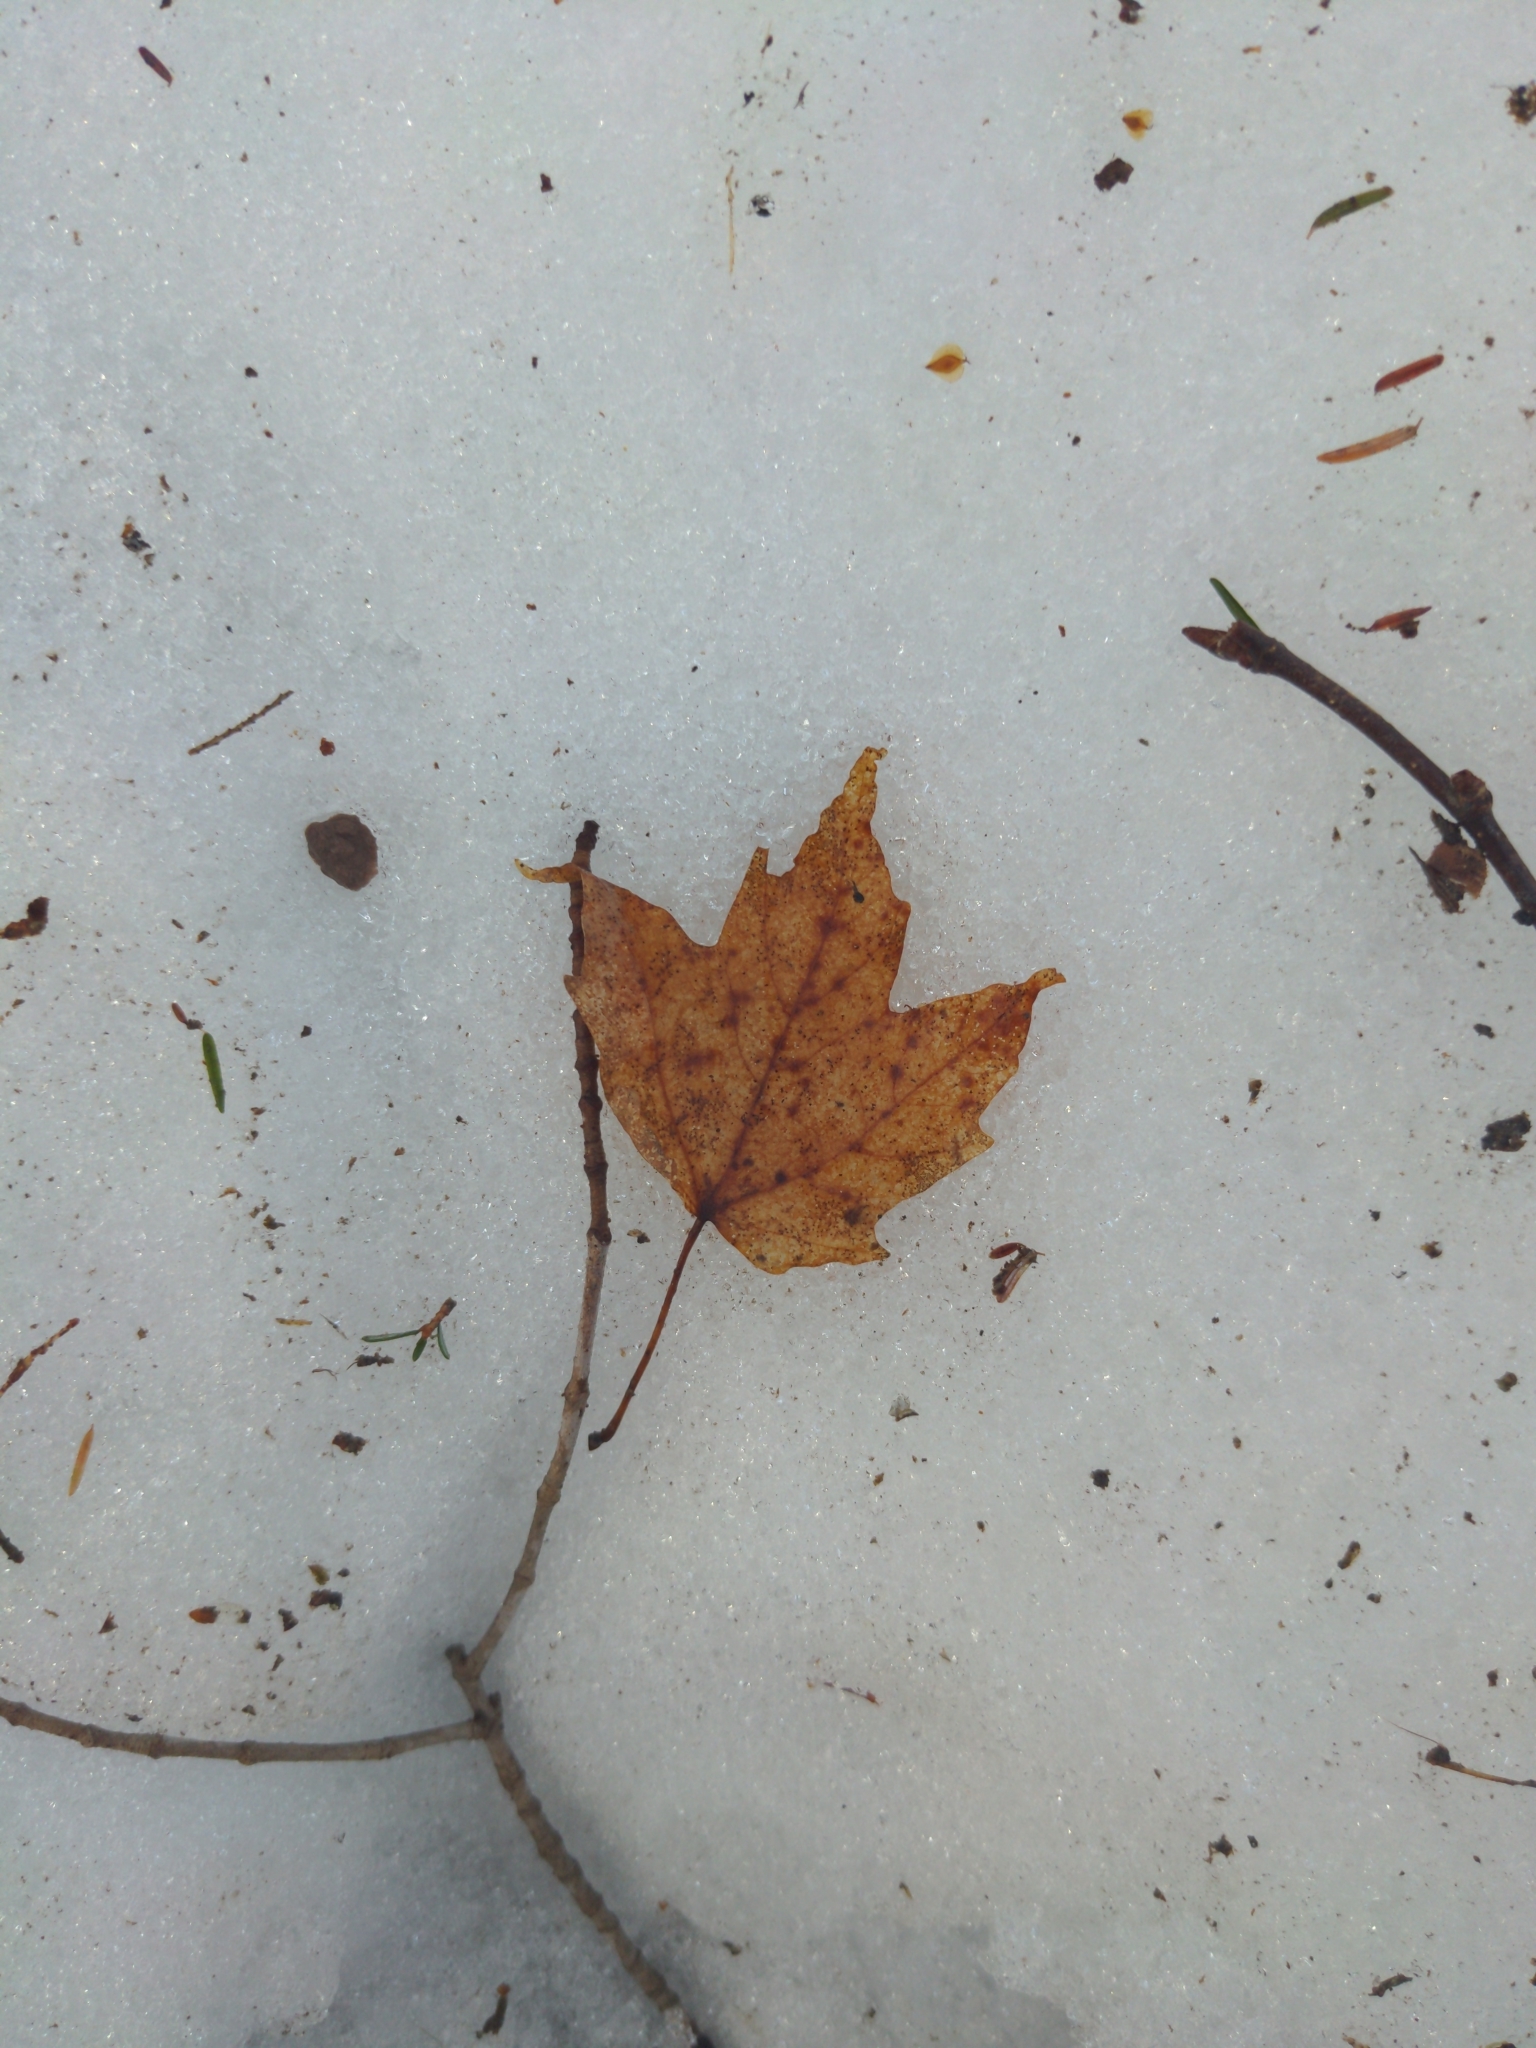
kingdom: Plantae
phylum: Tracheophyta
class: Magnoliopsida
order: Sapindales
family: Sapindaceae
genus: Acer
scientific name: Acer rubrum
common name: Red maple
